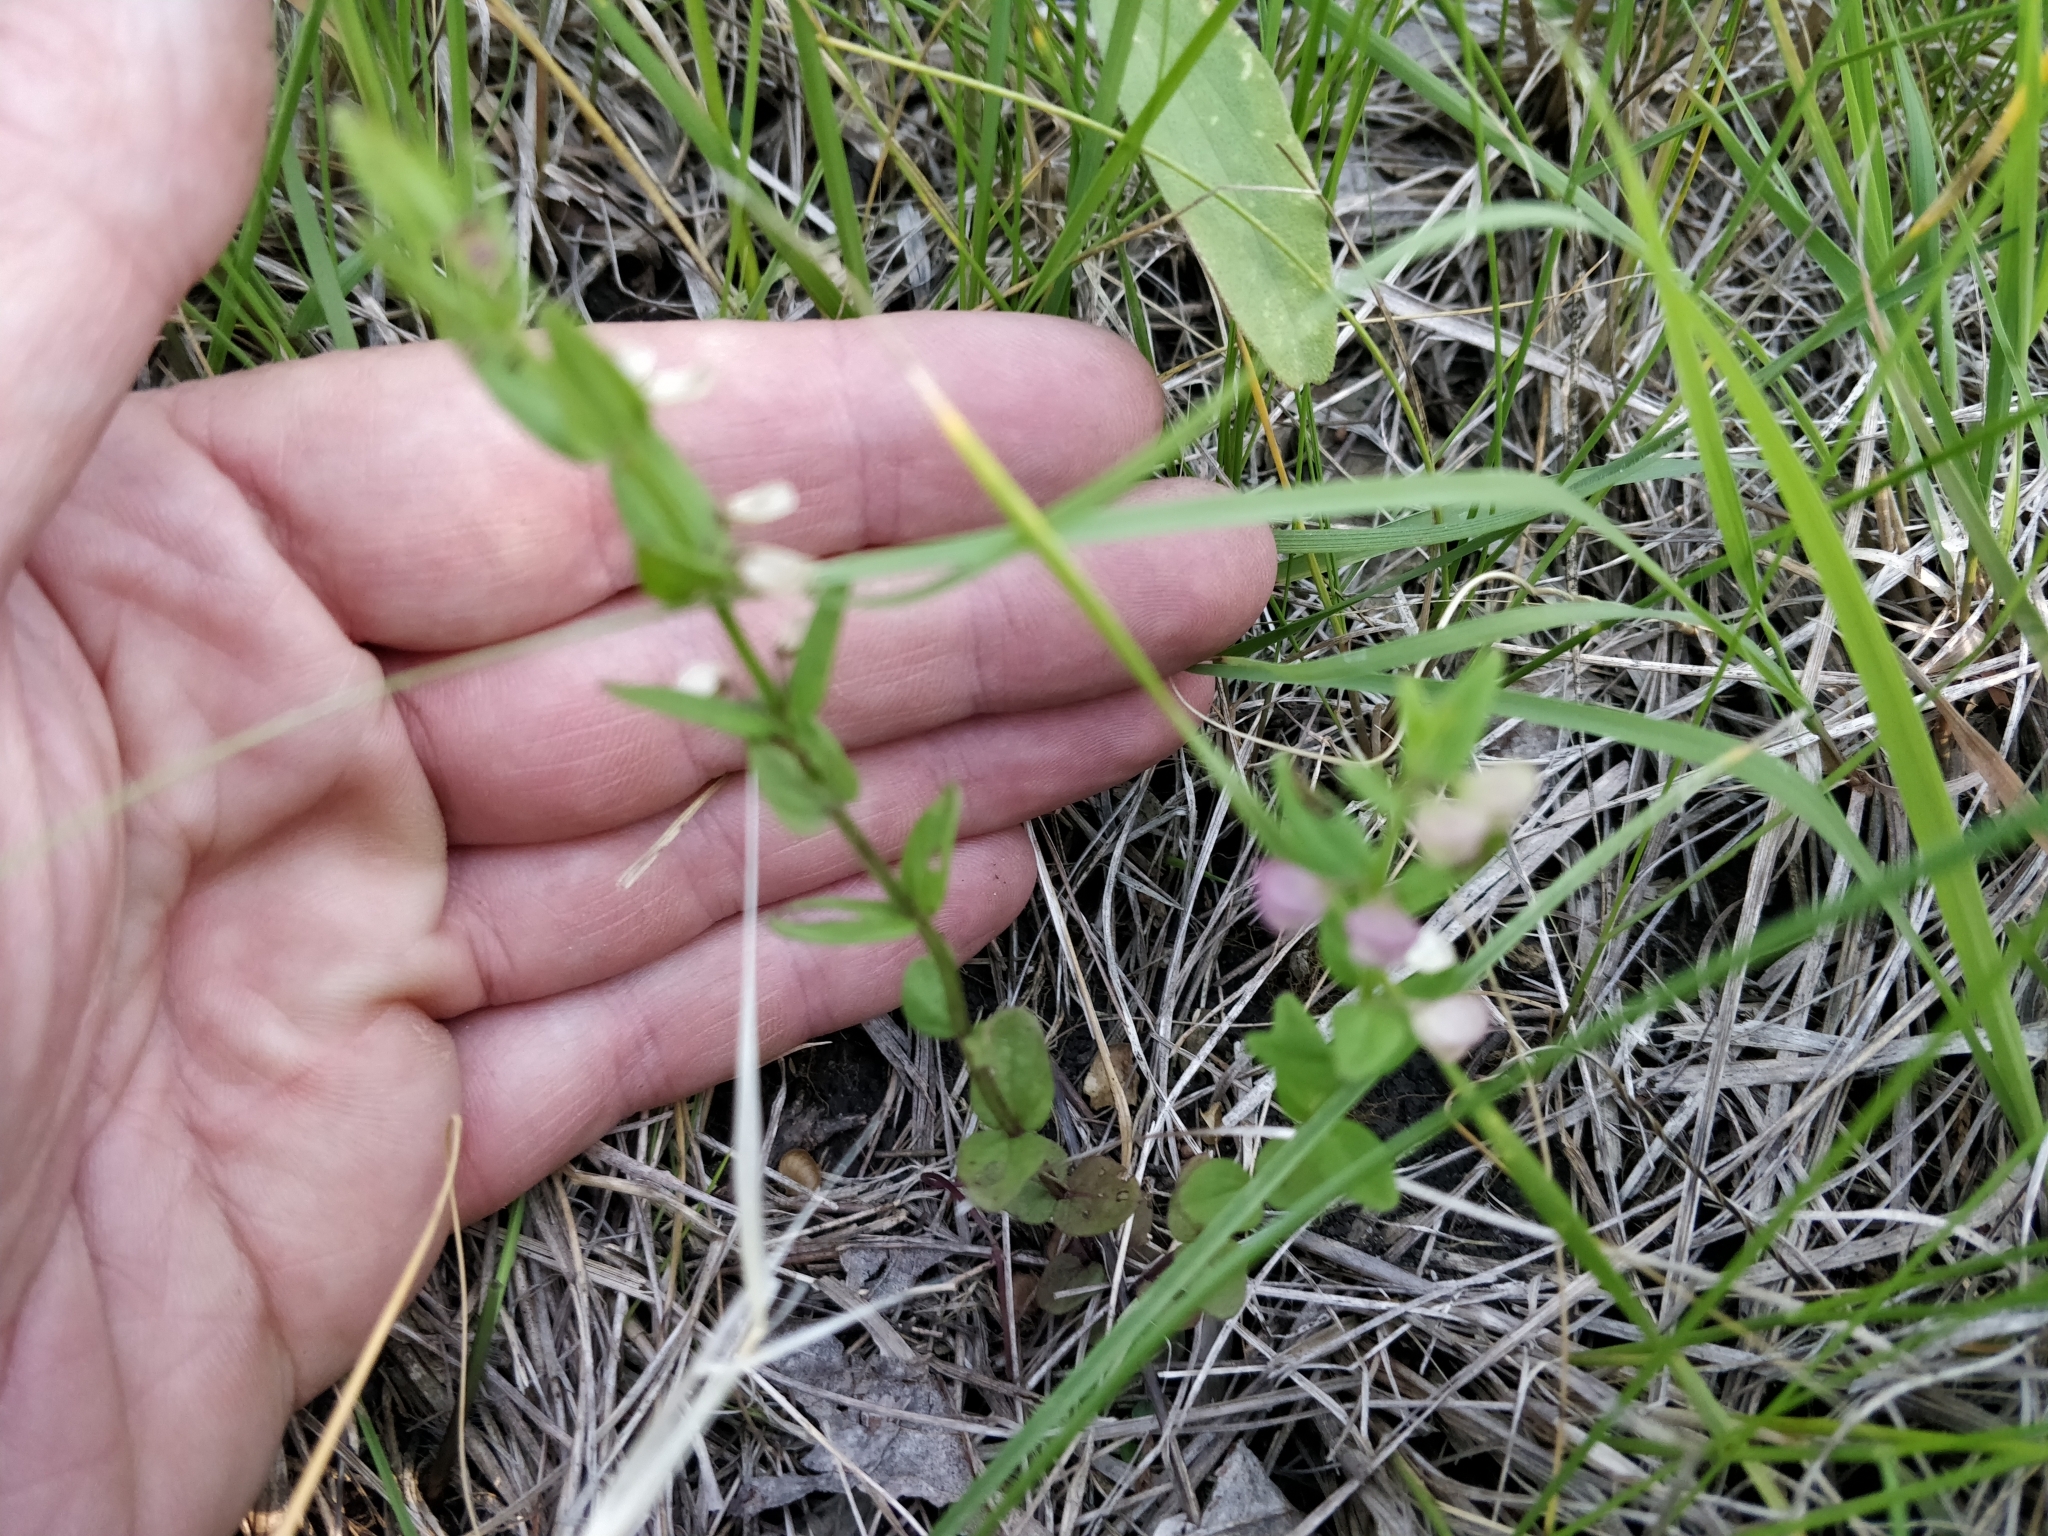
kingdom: Plantae
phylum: Tracheophyta
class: Magnoliopsida
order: Lamiales
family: Lamiaceae
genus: Scutellaria
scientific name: Scutellaria parvula
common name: Little scullcap
